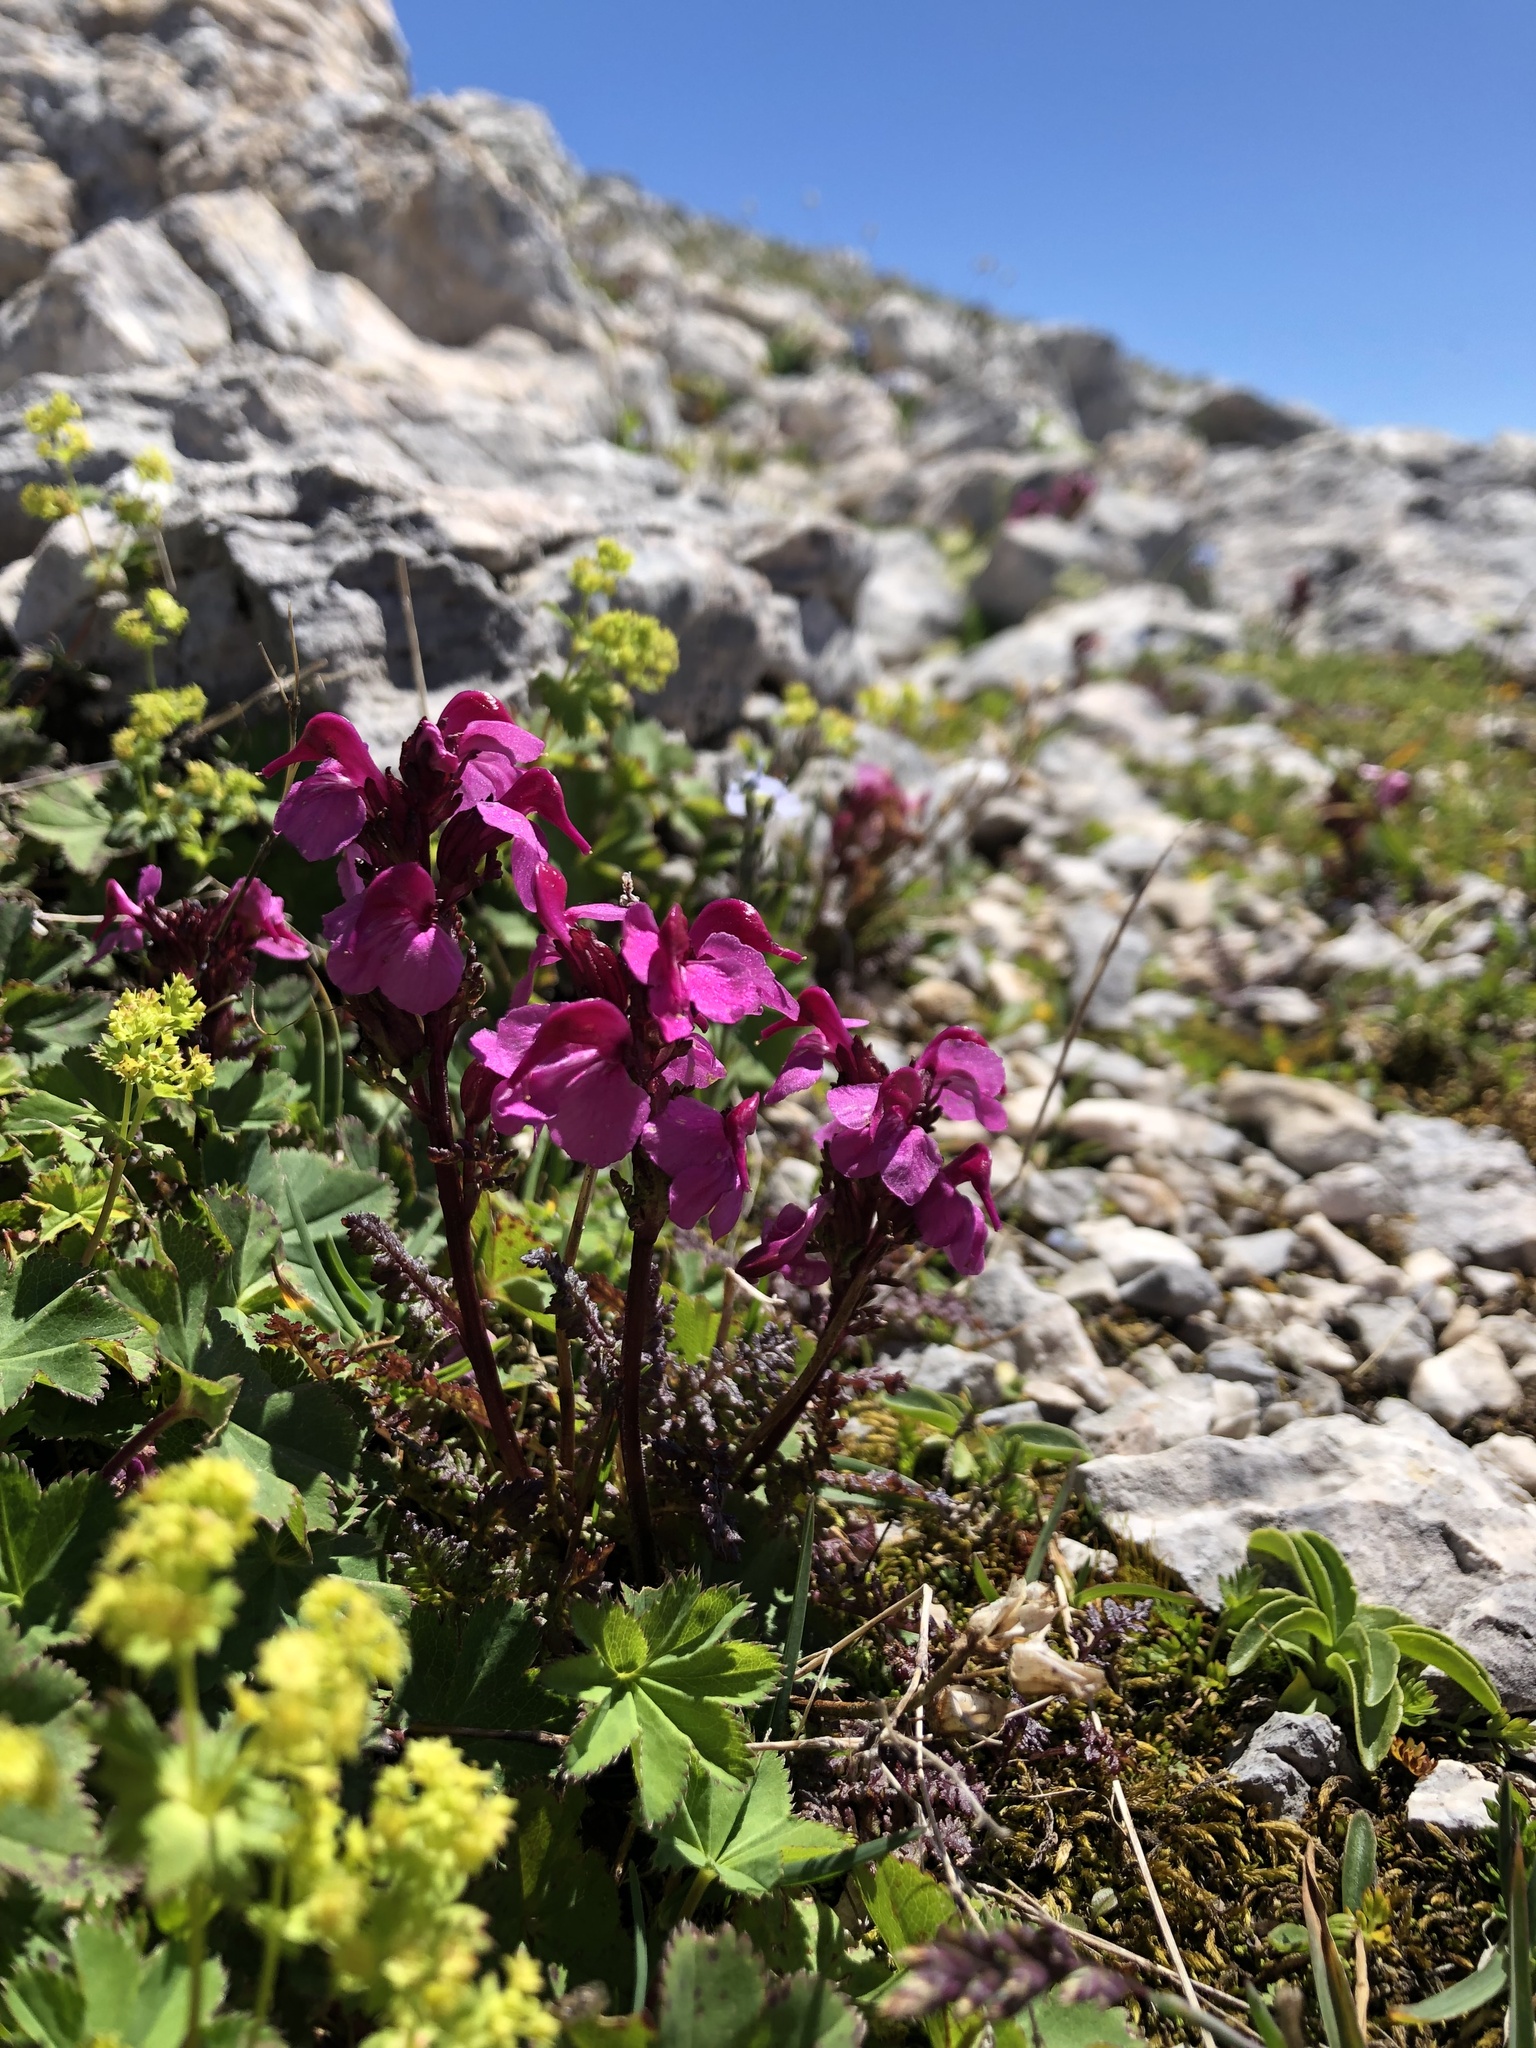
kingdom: Plantae
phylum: Tracheophyta
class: Magnoliopsida
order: Lamiales
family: Orobanchaceae
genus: Pedicularis
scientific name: Pedicularis nordmanniana
